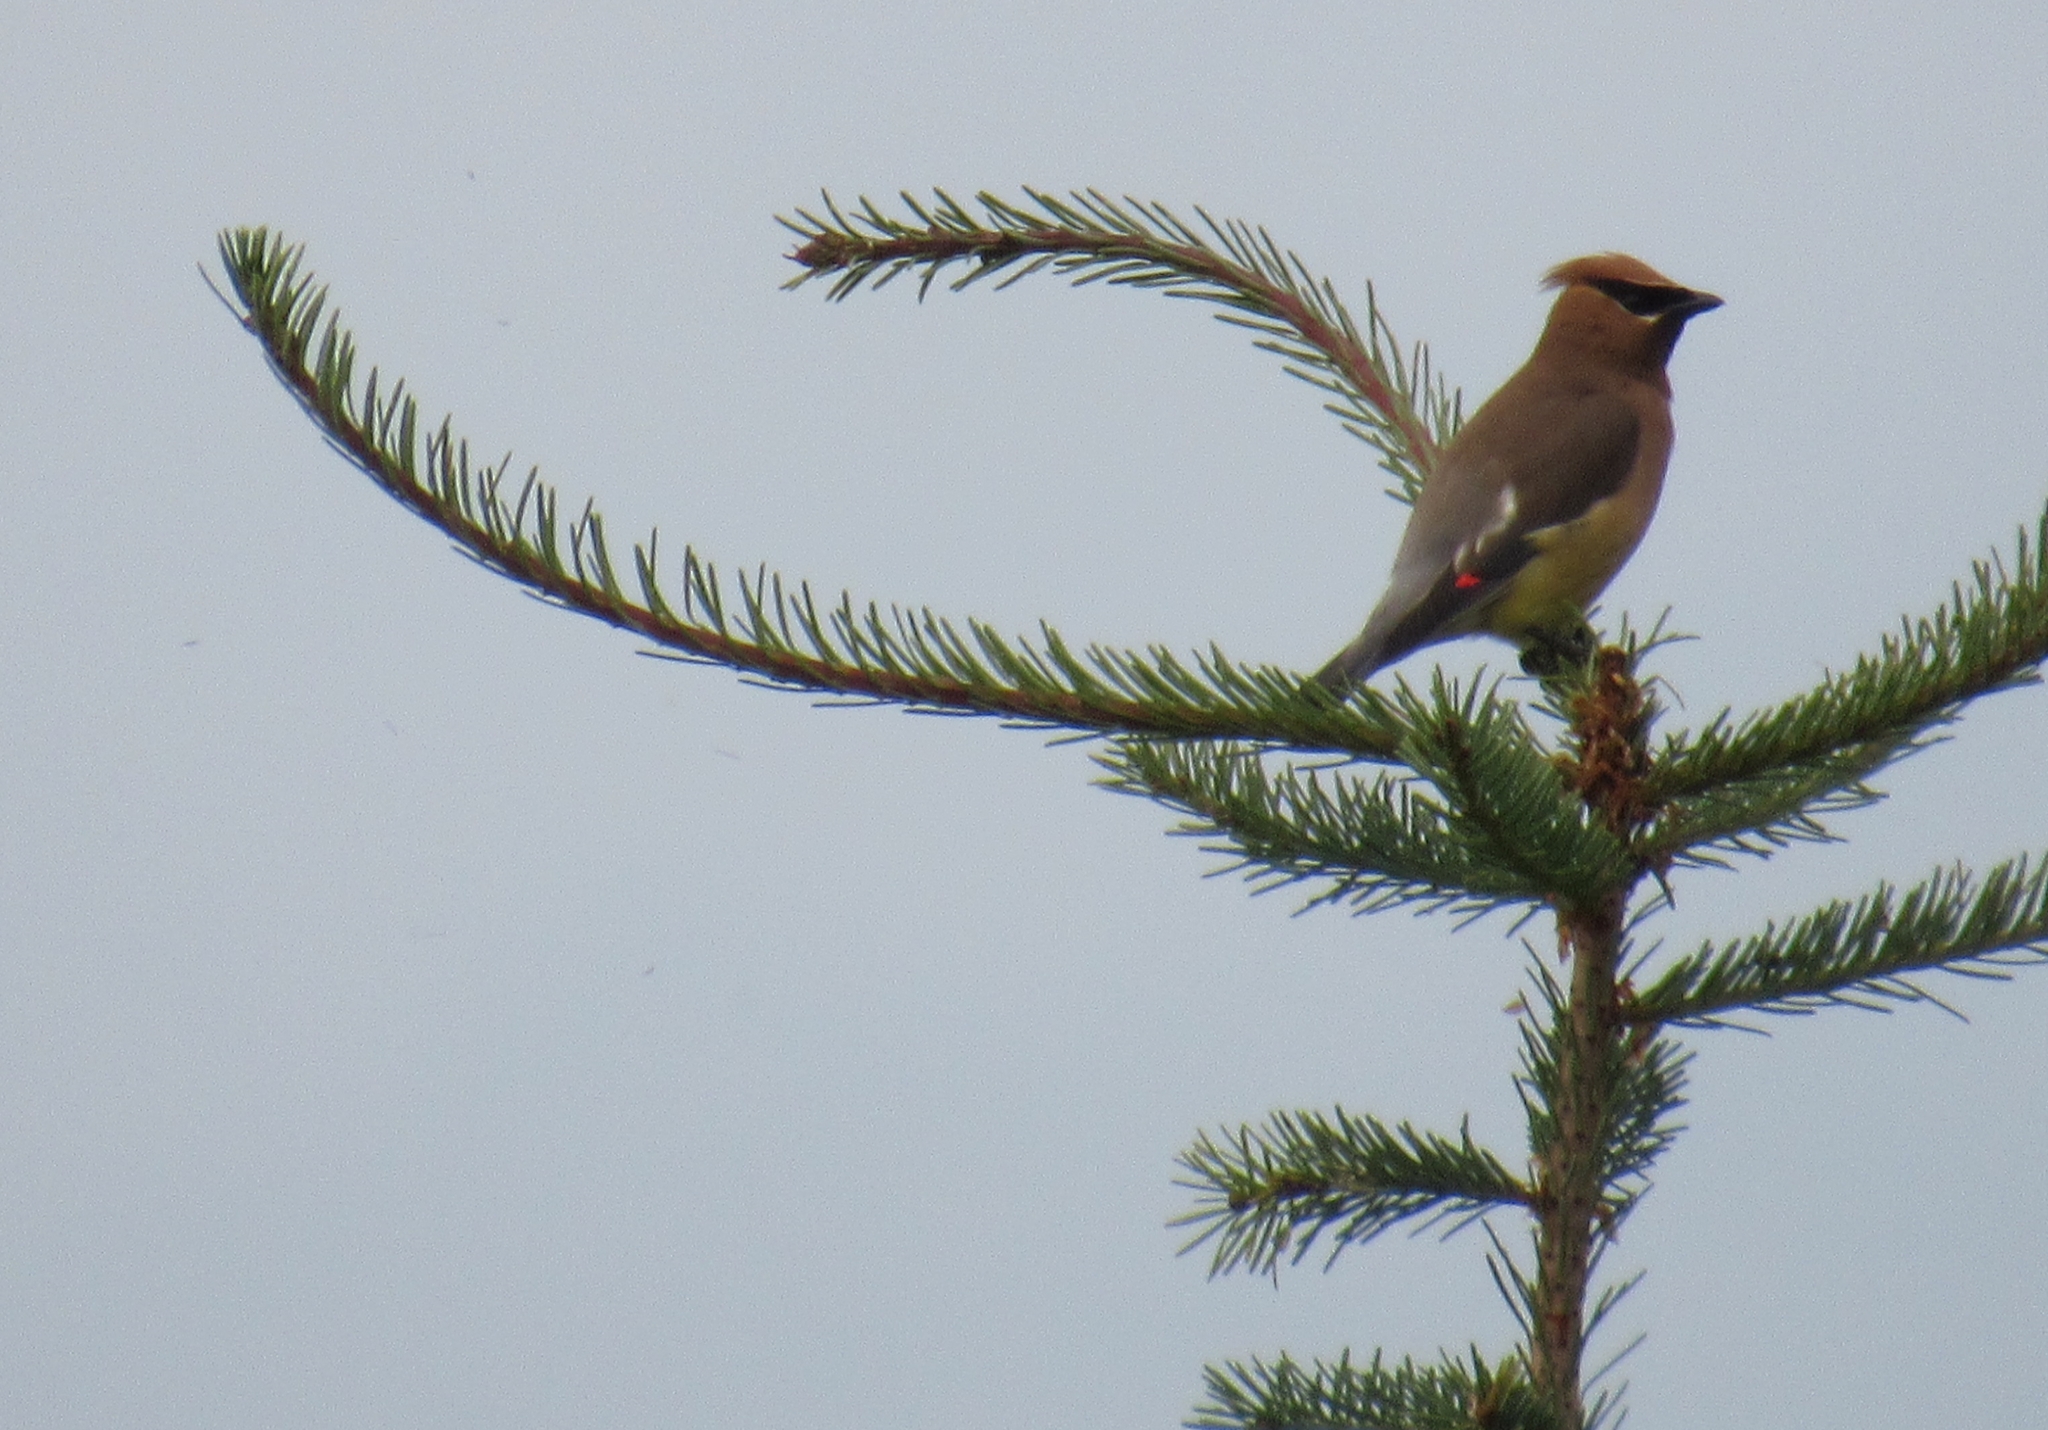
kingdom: Animalia
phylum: Chordata
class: Aves
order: Passeriformes
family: Bombycillidae
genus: Bombycilla
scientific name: Bombycilla cedrorum
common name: Cedar waxwing
